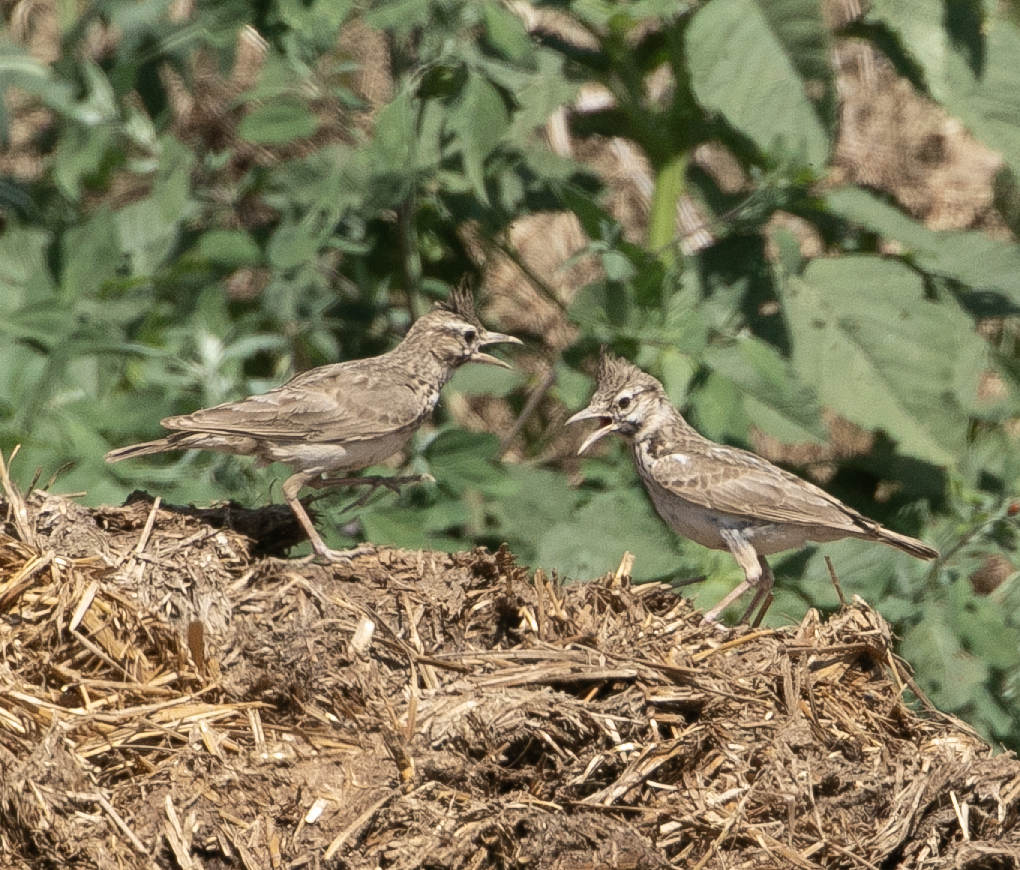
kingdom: Animalia
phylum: Chordata
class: Aves
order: Passeriformes
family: Alaudidae
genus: Galerida
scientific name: Galerida cristata
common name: Crested lark
